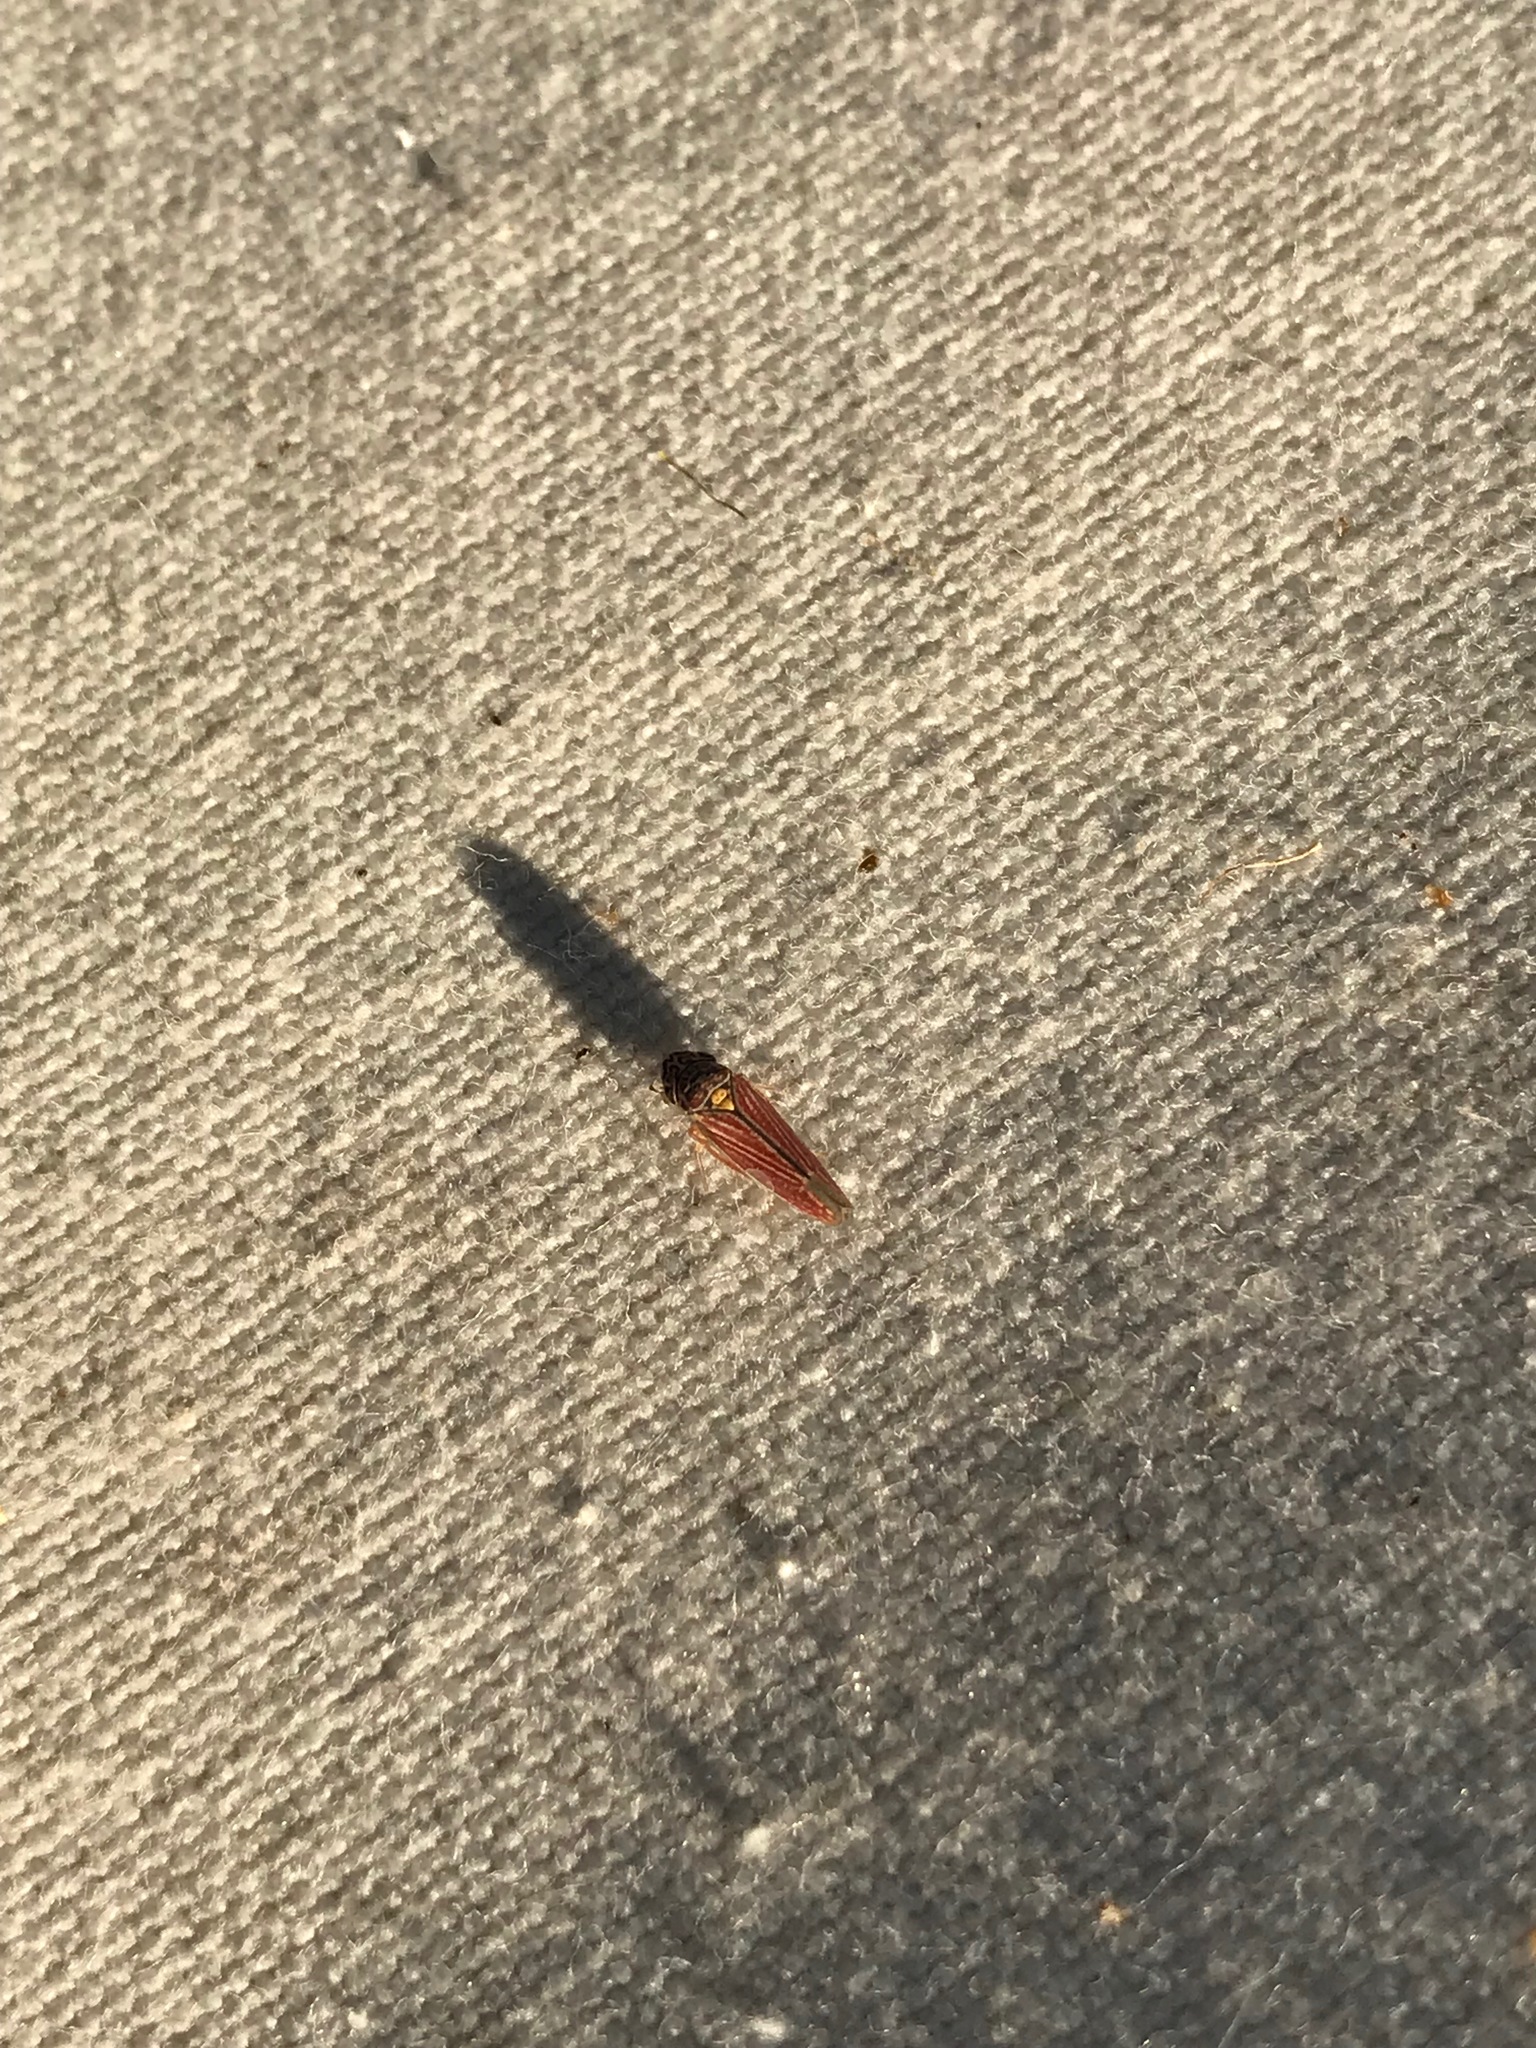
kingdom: Animalia
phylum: Arthropoda
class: Insecta
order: Hemiptera
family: Cicadellidae
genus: Neokolla
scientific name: Neokolla hieroglyphica
